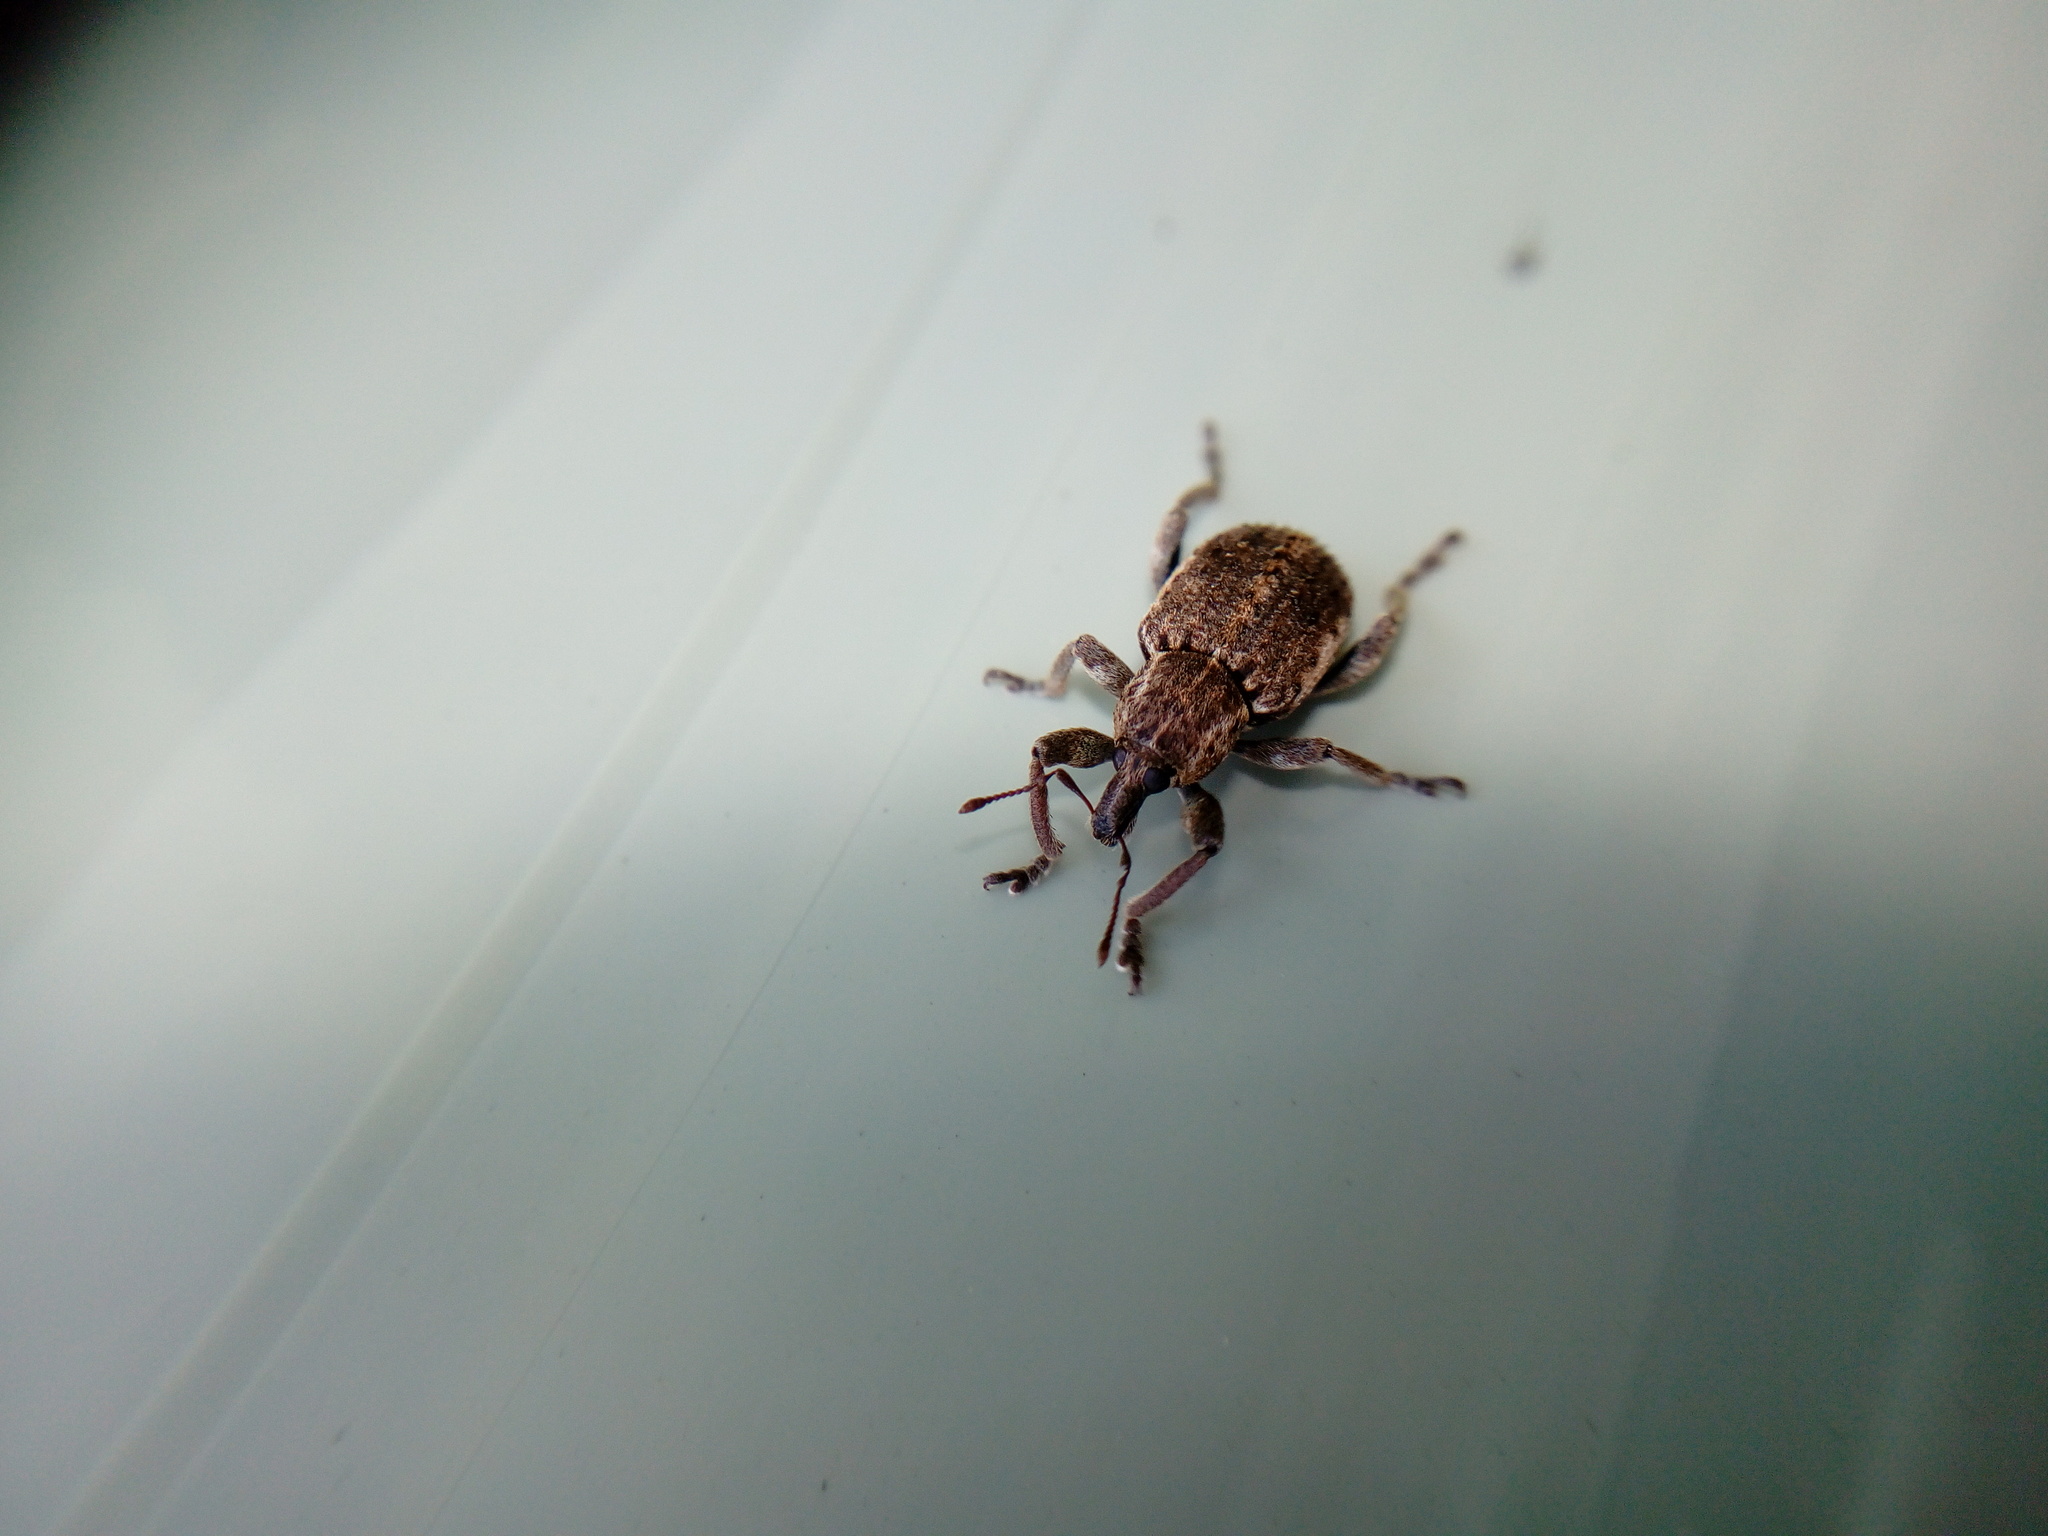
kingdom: Animalia
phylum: Arthropoda
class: Insecta
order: Coleoptera
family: Curculionidae
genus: Brachypera
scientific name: Brachypera zoilus
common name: Clover leaf weevil
